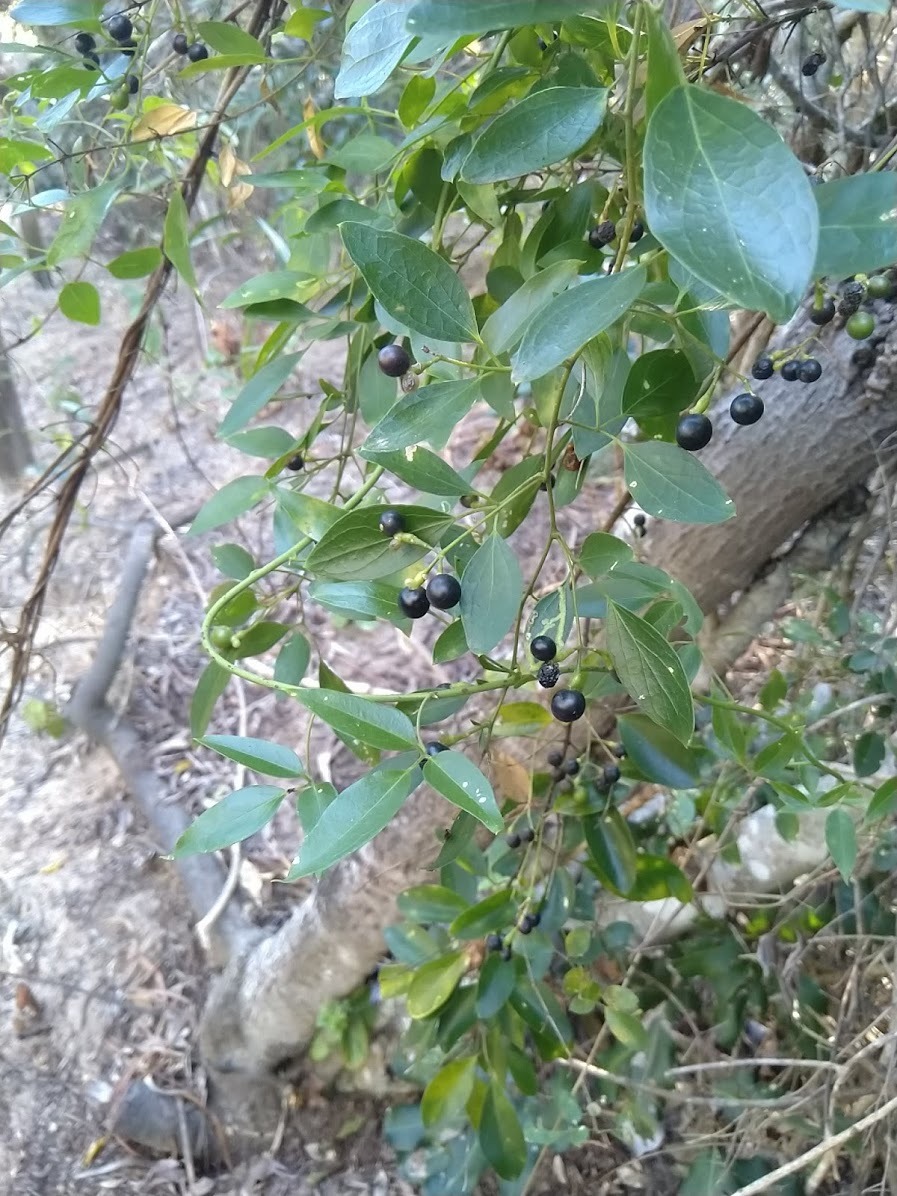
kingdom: Plantae
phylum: Tracheophyta
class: Magnoliopsida
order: Lamiales
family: Oleaceae
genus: Jasminum
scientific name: Jasminum didymum
